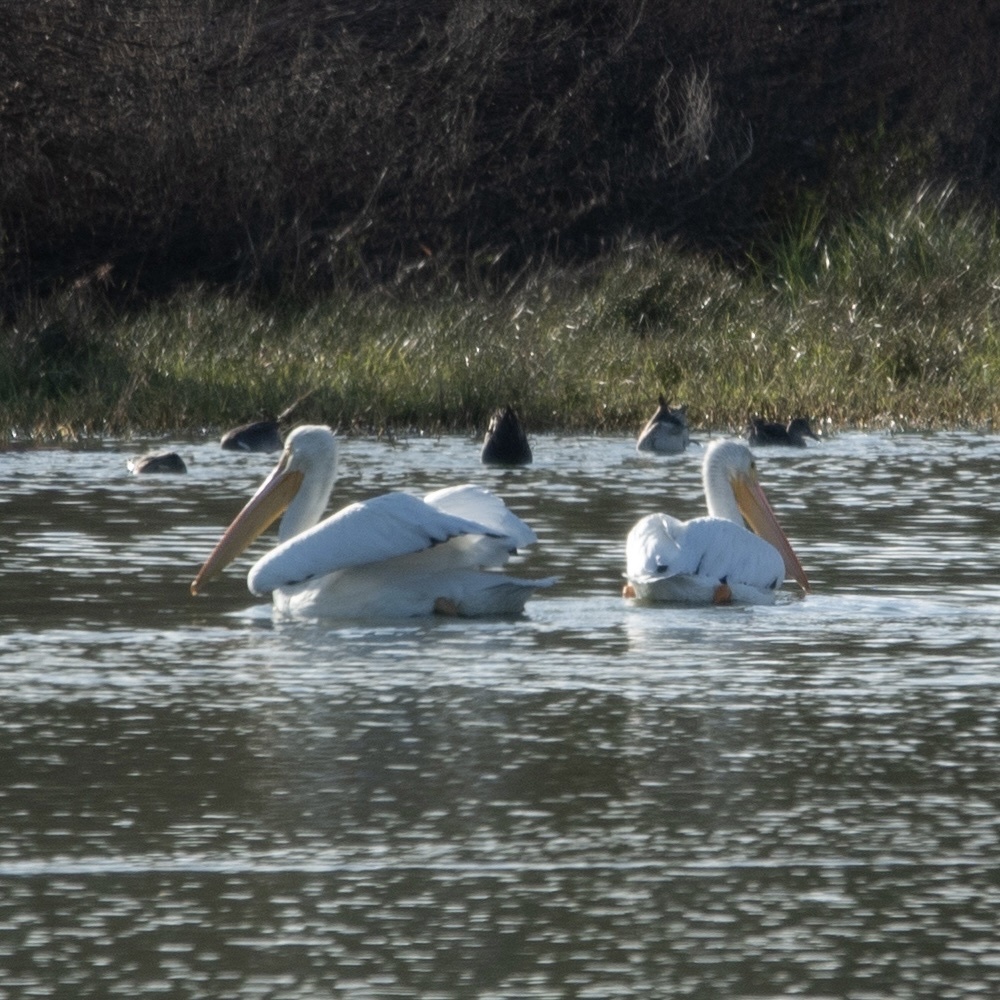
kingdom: Animalia
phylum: Chordata
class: Aves
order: Pelecaniformes
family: Pelecanidae
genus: Pelecanus
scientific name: Pelecanus erythrorhynchos
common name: American white pelican
